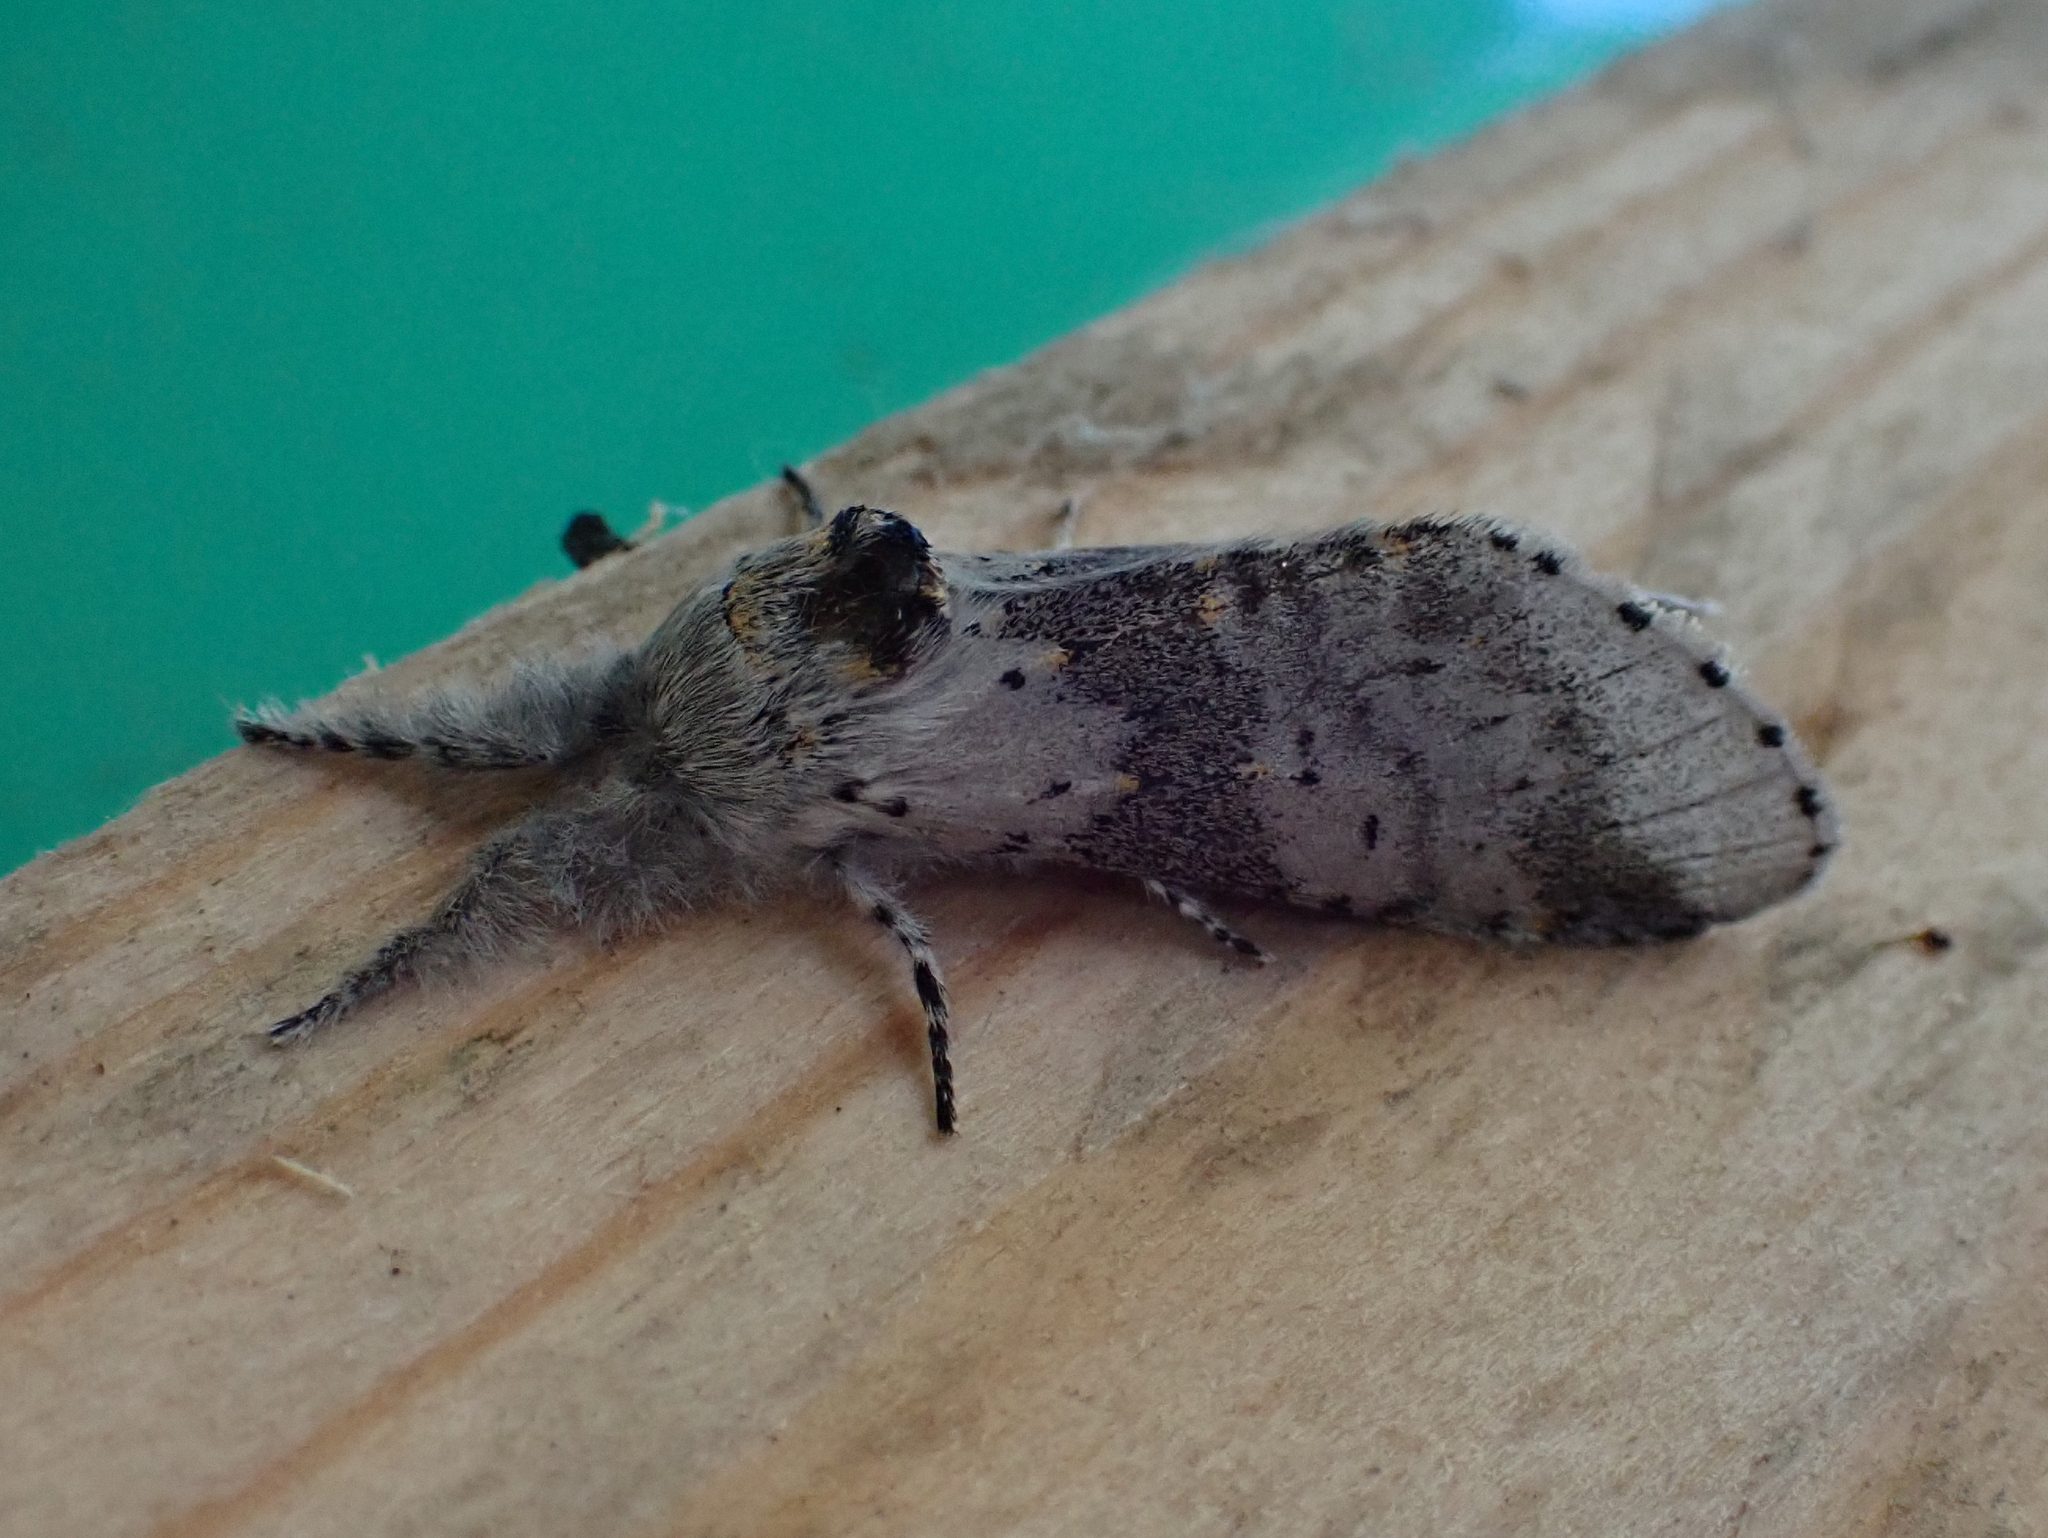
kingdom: Animalia
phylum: Arthropoda
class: Insecta
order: Lepidoptera
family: Notodontidae
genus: Furcula
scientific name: Furcula cinerea
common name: Gray furcula
